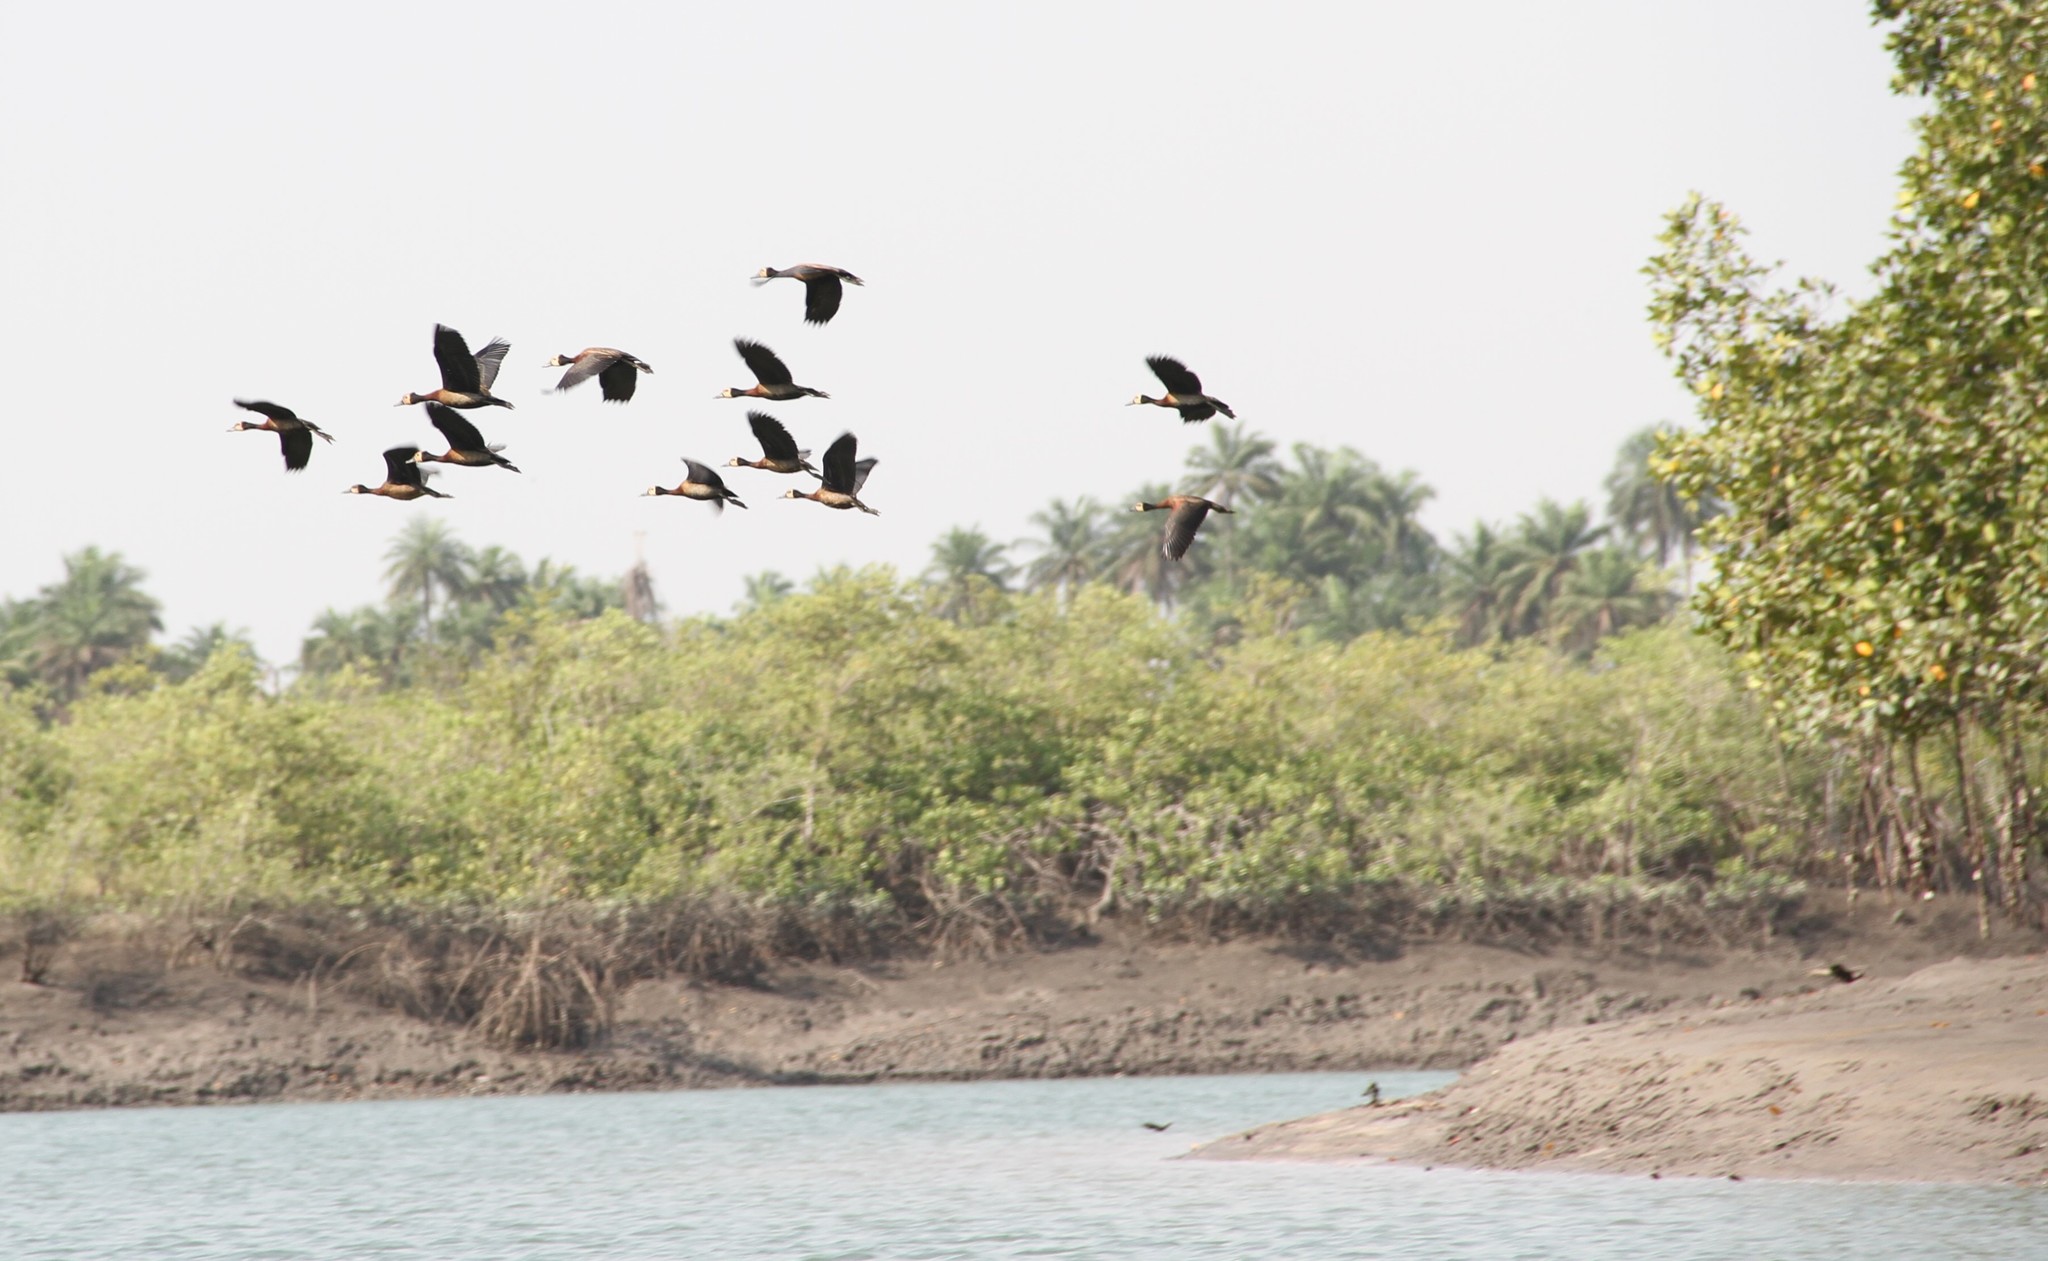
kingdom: Animalia
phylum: Chordata
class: Aves
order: Anseriformes
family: Anatidae
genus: Dendrocygna
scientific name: Dendrocygna viduata
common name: White-faced whistling duck
